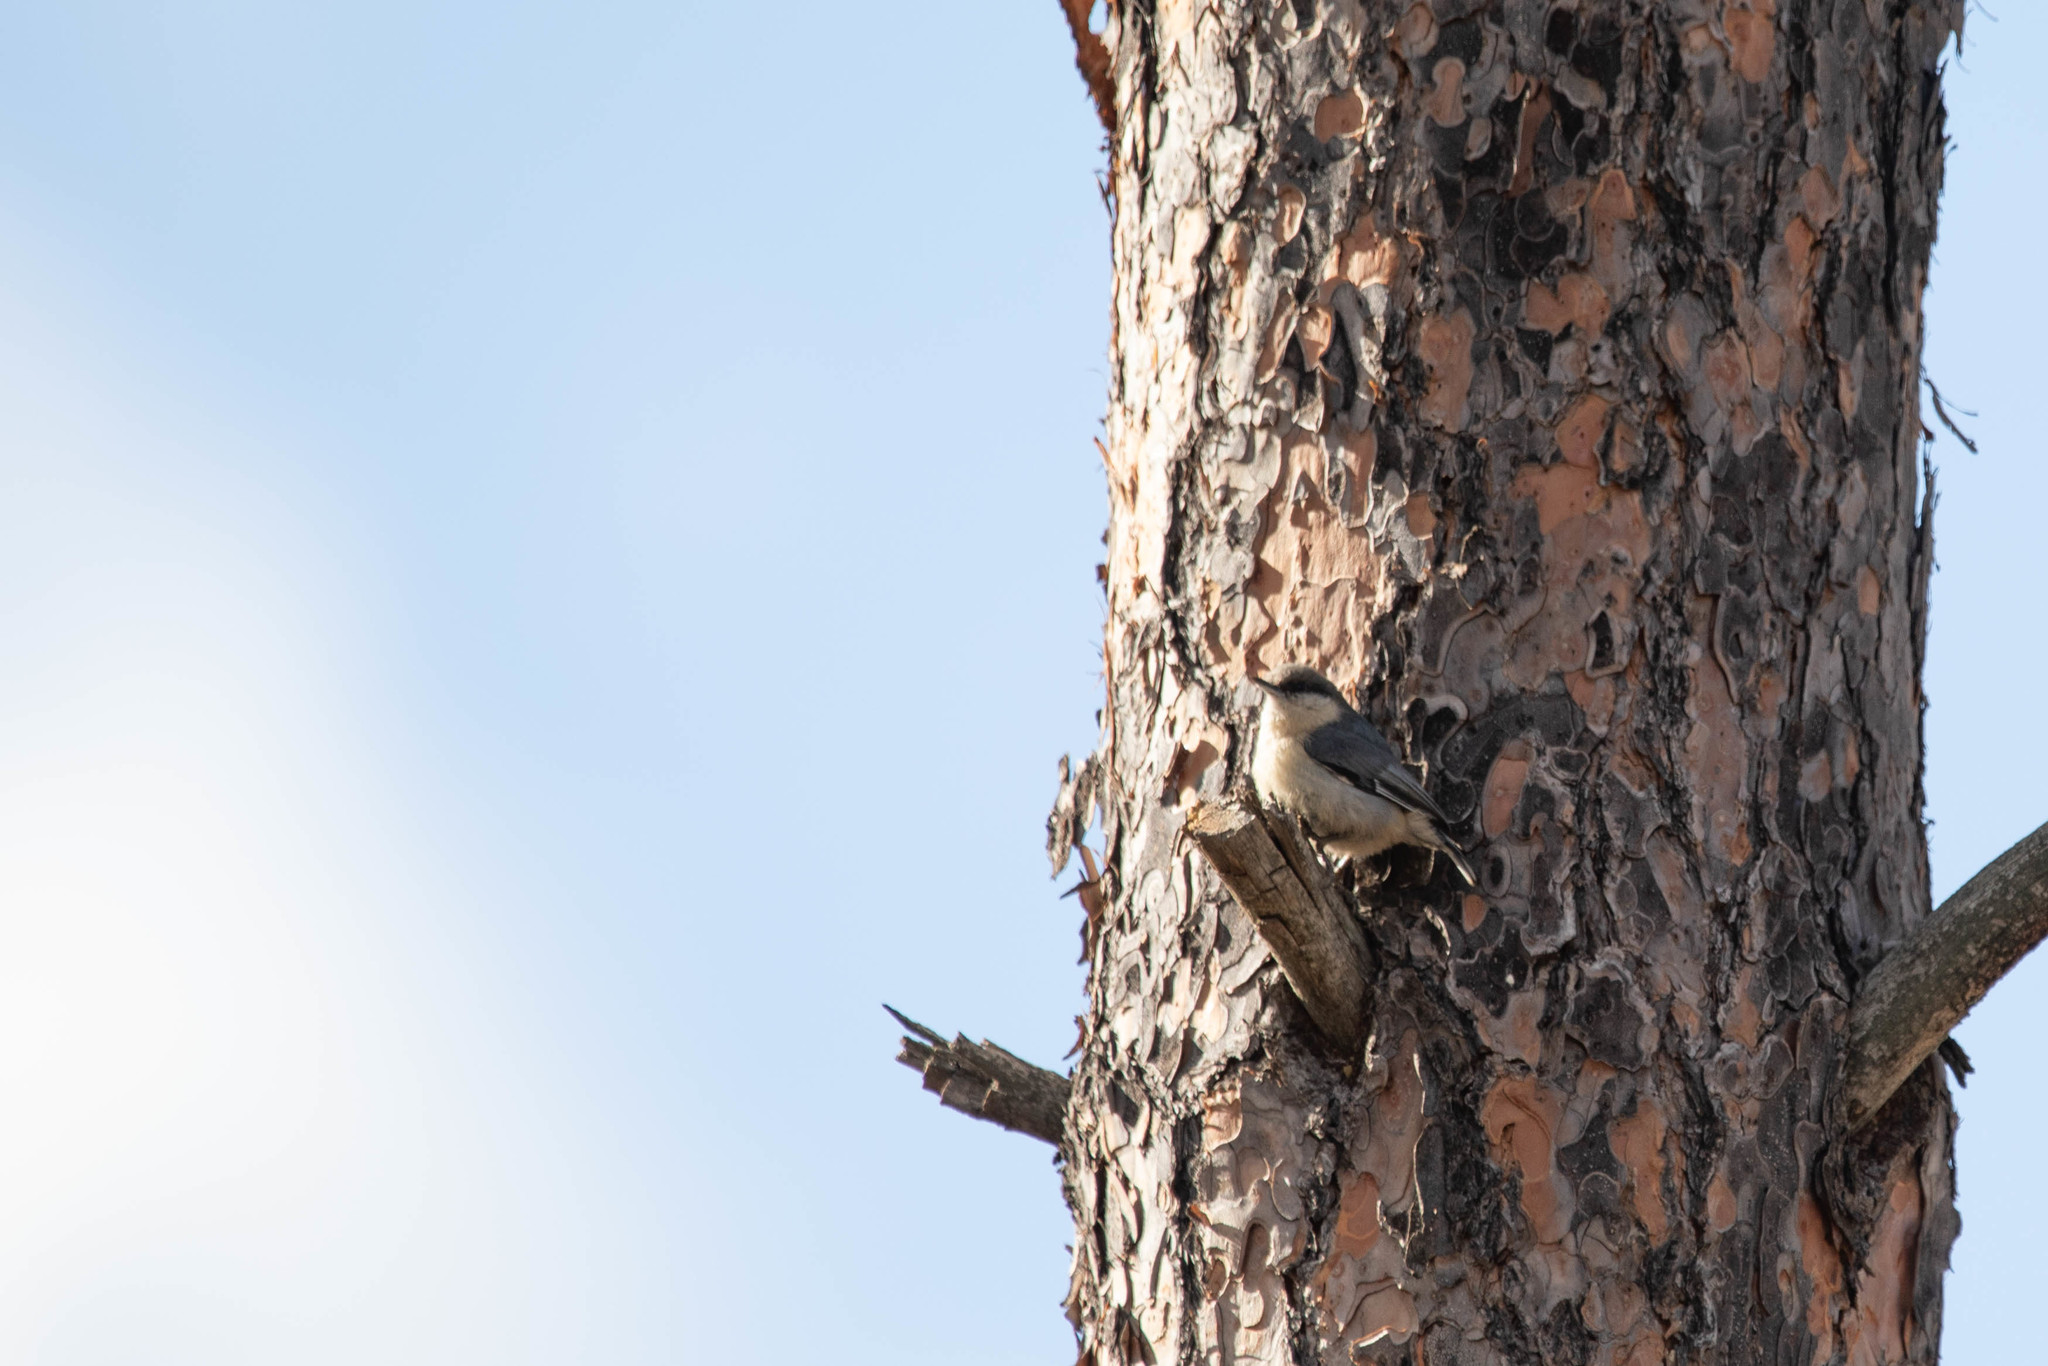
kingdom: Animalia
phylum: Chordata
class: Aves
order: Passeriformes
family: Sittidae
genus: Sitta
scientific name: Sitta pygmaea
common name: Pygmy nuthatch
